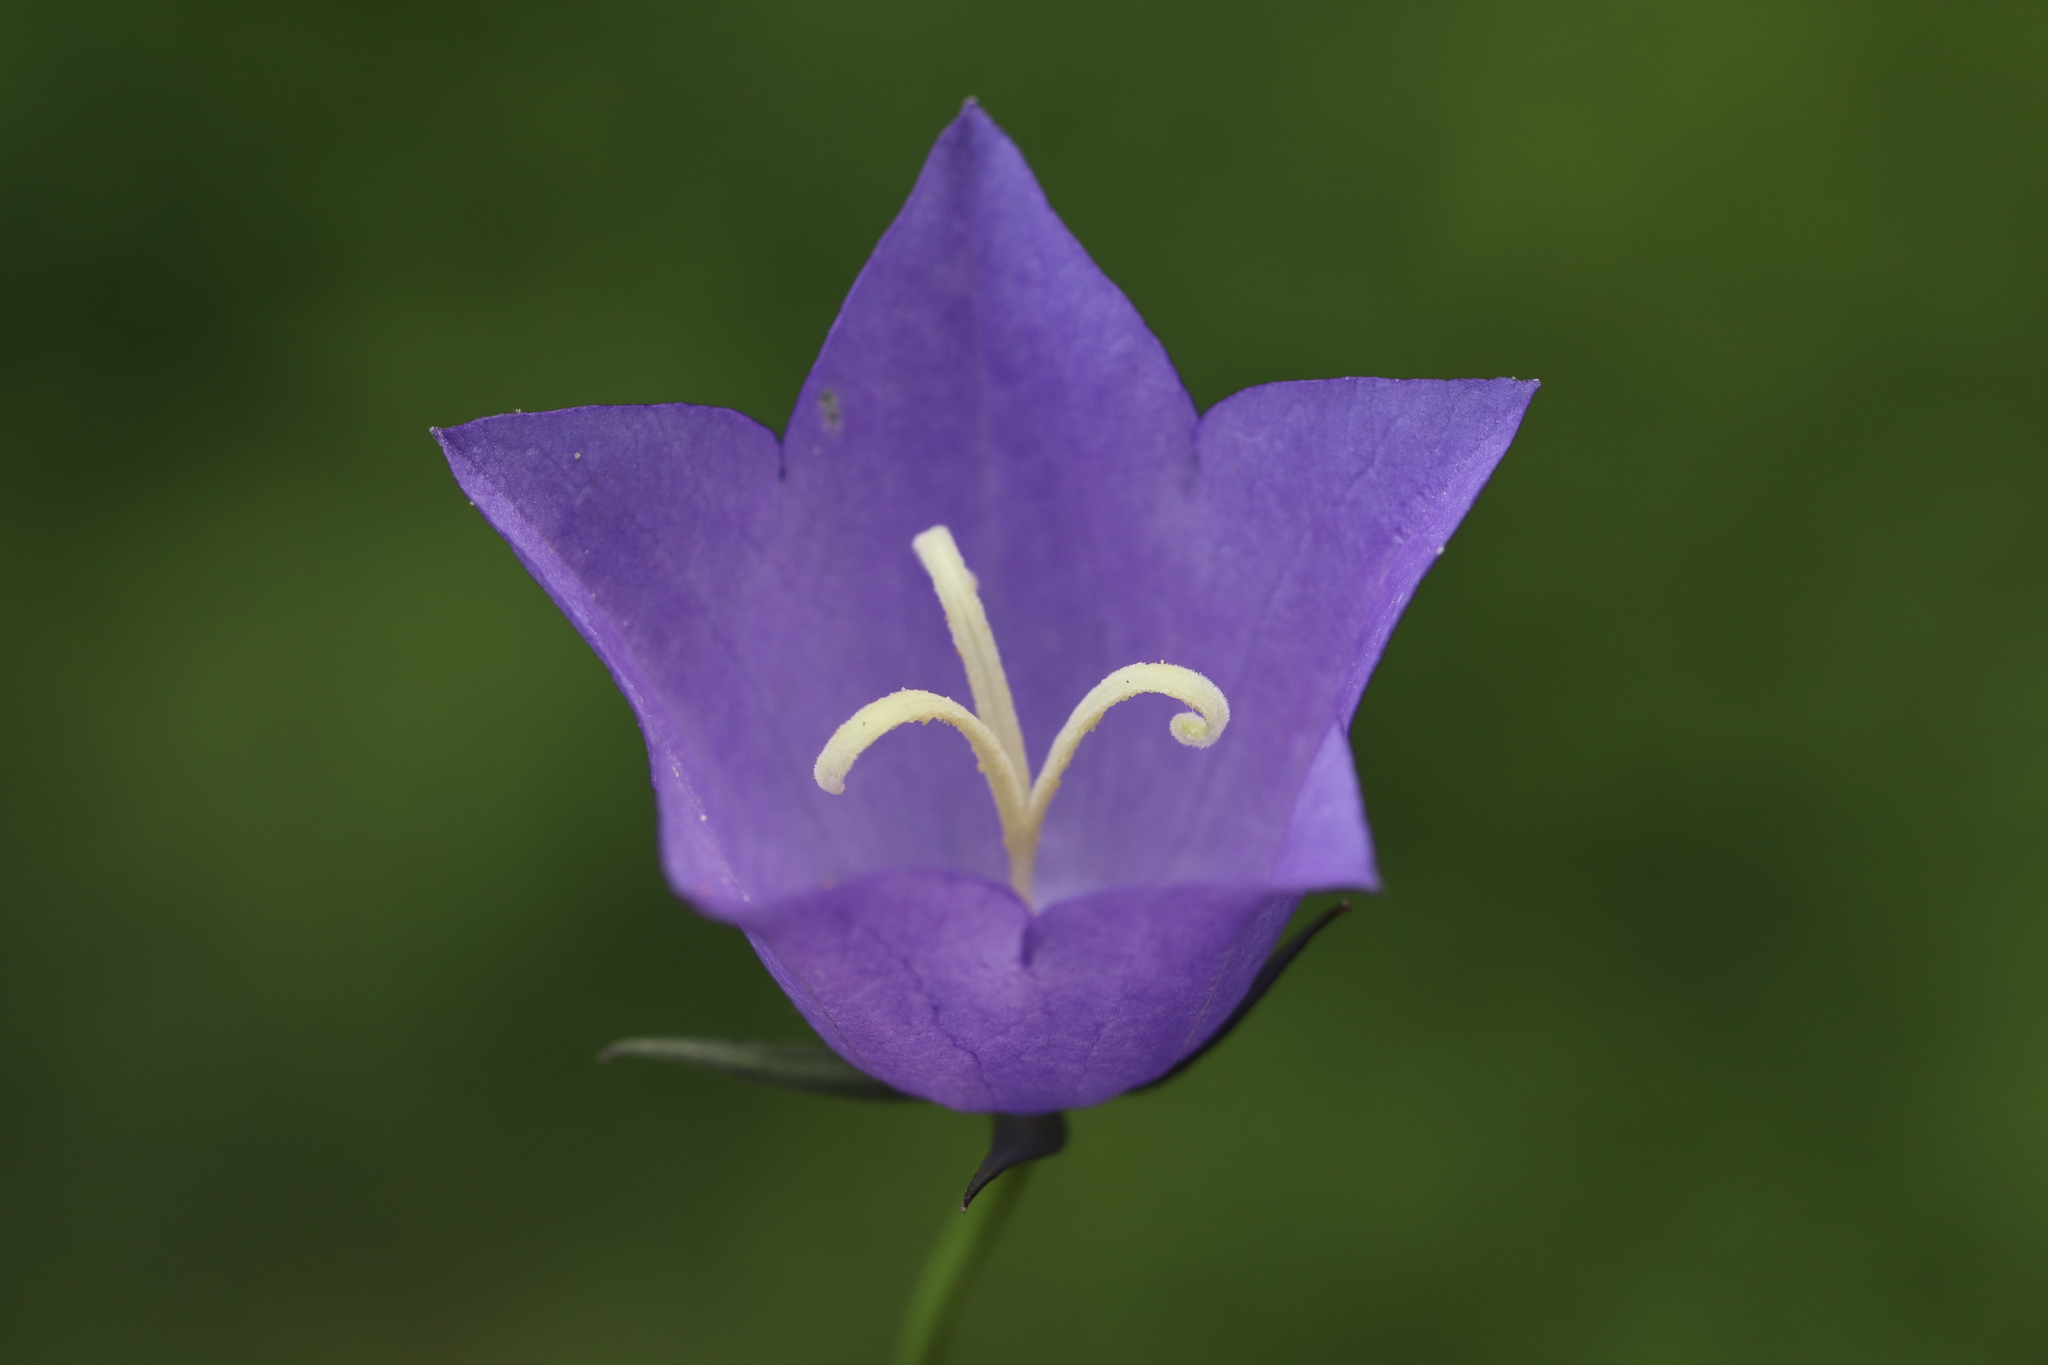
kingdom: Plantae
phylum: Tracheophyta
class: Magnoliopsida
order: Asterales
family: Campanulaceae
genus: Campanula
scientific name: Campanula persicifolia
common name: Peach-leaved bellflower
